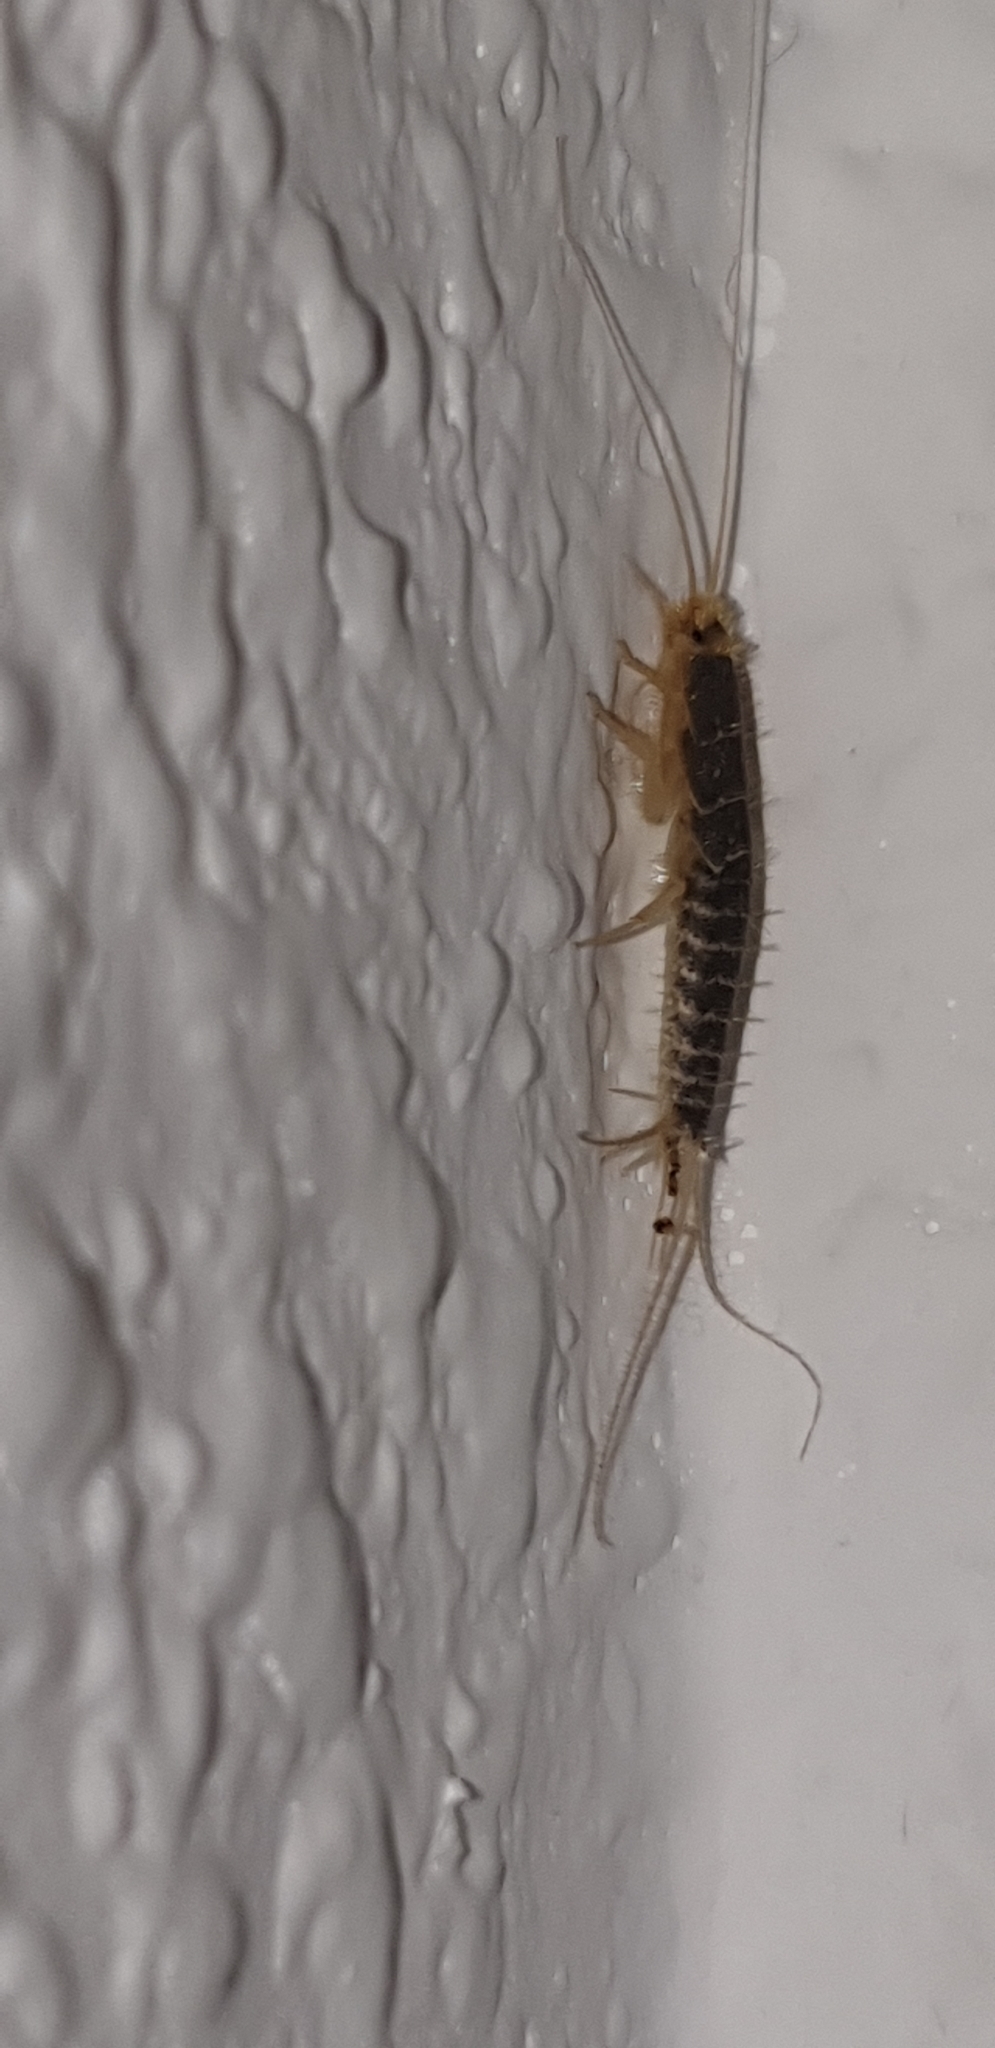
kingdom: Animalia
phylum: Arthropoda
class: Insecta
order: Zygentoma
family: Lepismatidae
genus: Ctenolepisma
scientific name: Ctenolepisma longicaudatum
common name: Silverfish
